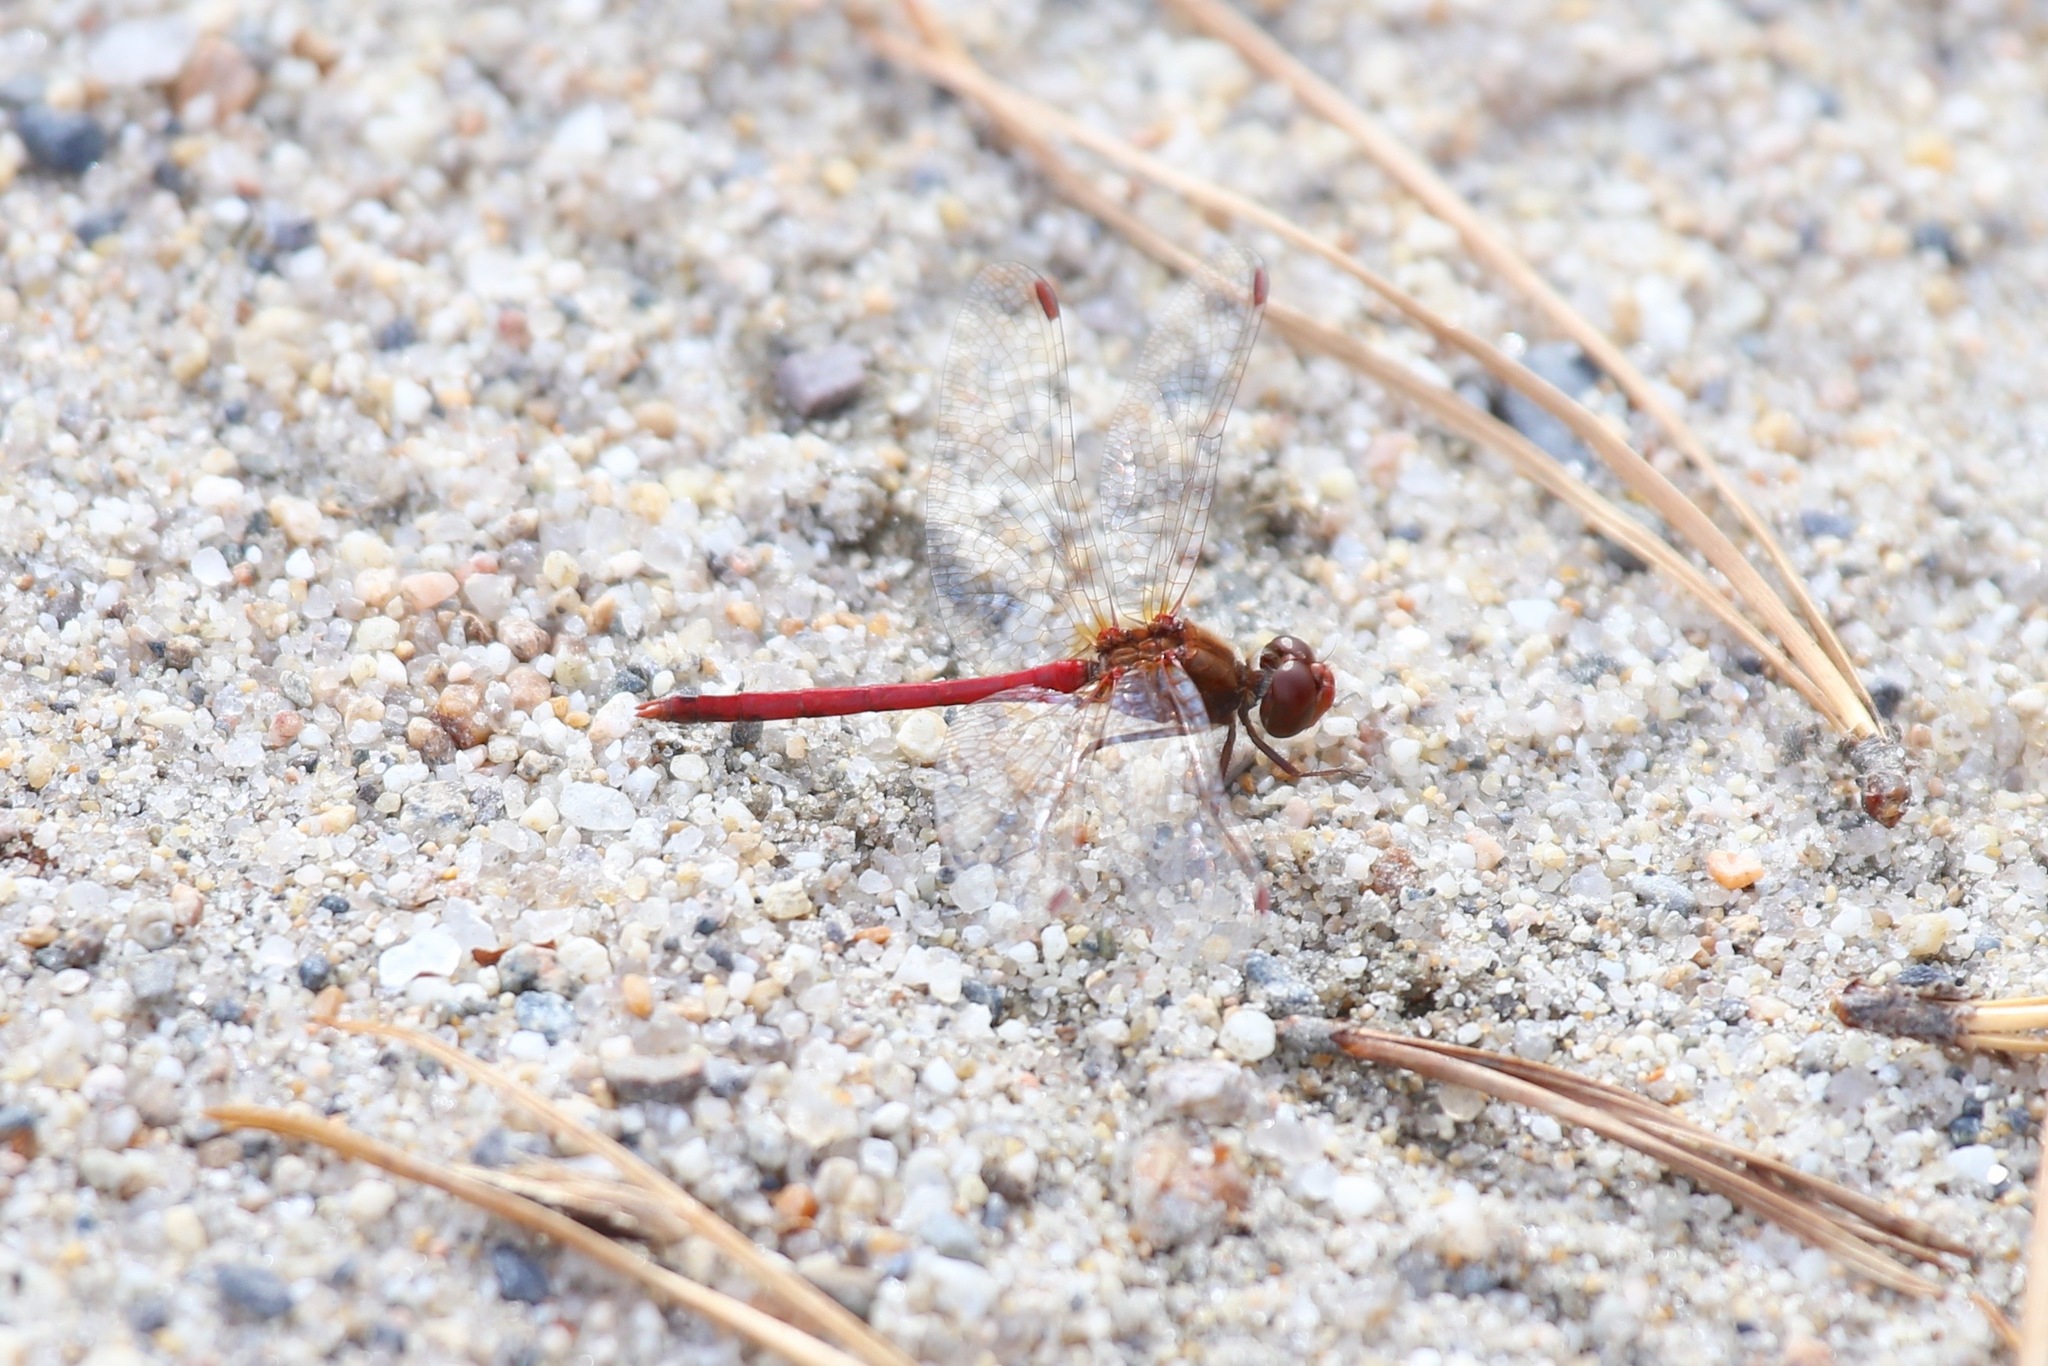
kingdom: Animalia
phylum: Arthropoda
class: Insecta
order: Odonata
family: Libellulidae
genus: Sympetrum
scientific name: Sympetrum vicinum
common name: Autumn meadowhawk
